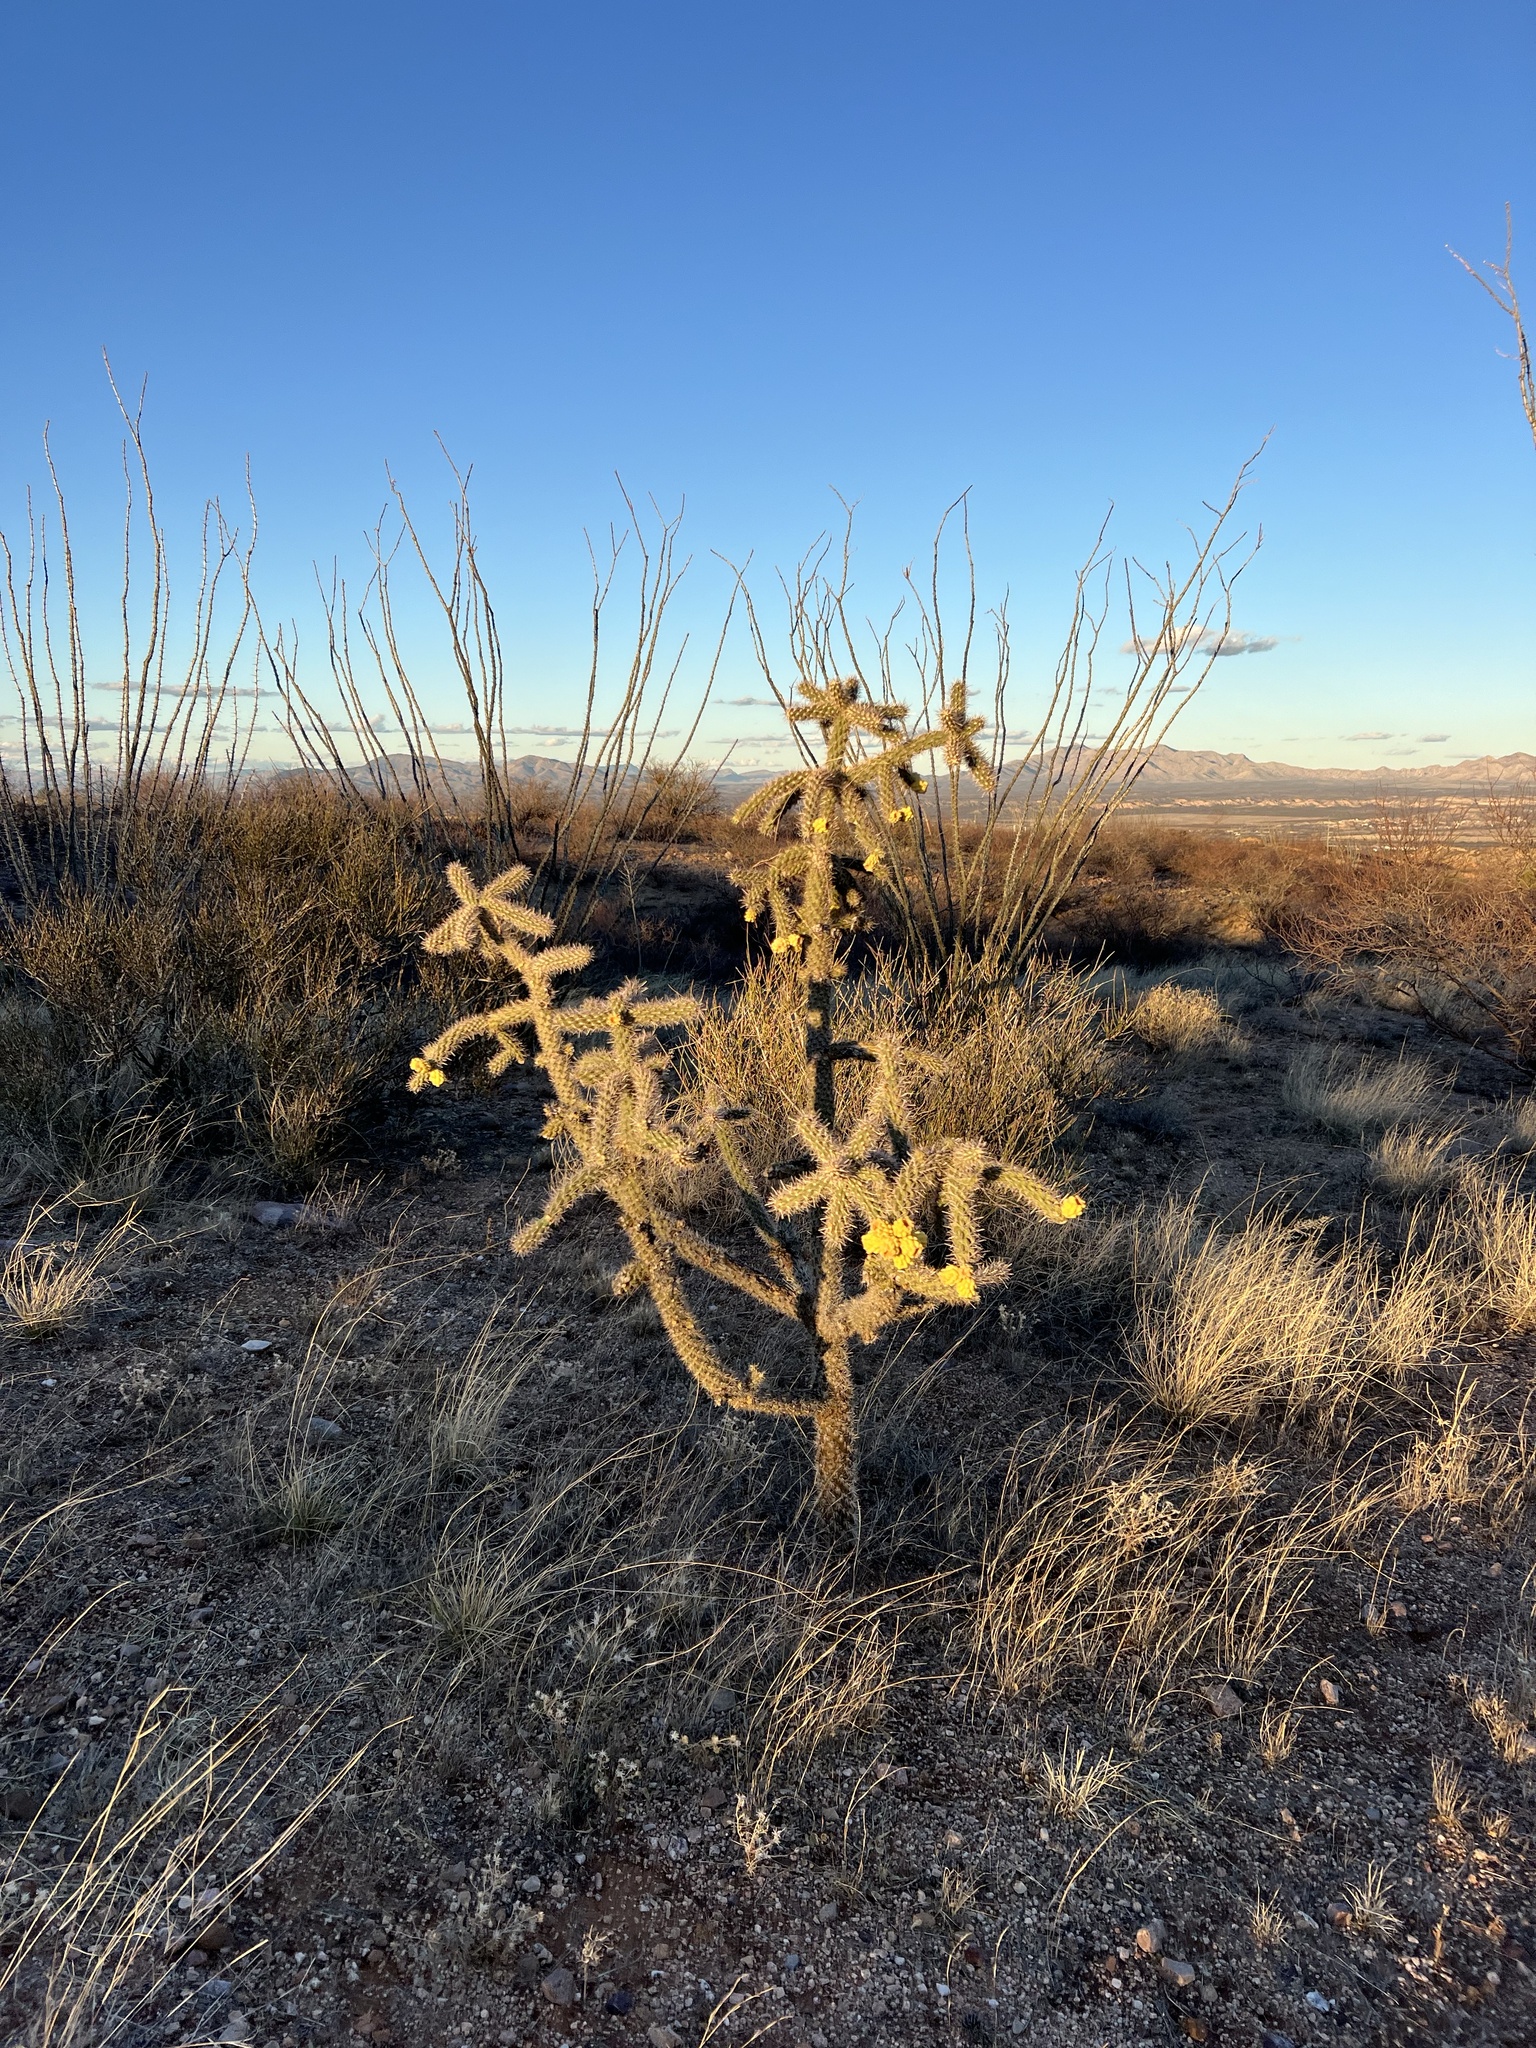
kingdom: Plantae
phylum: Tracheophyta
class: Magnoliopsida
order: Caryophyllales
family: Cactaceae
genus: Cylindropuntia
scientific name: Cylindropuntia imbricata
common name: Candelabrum cactus
